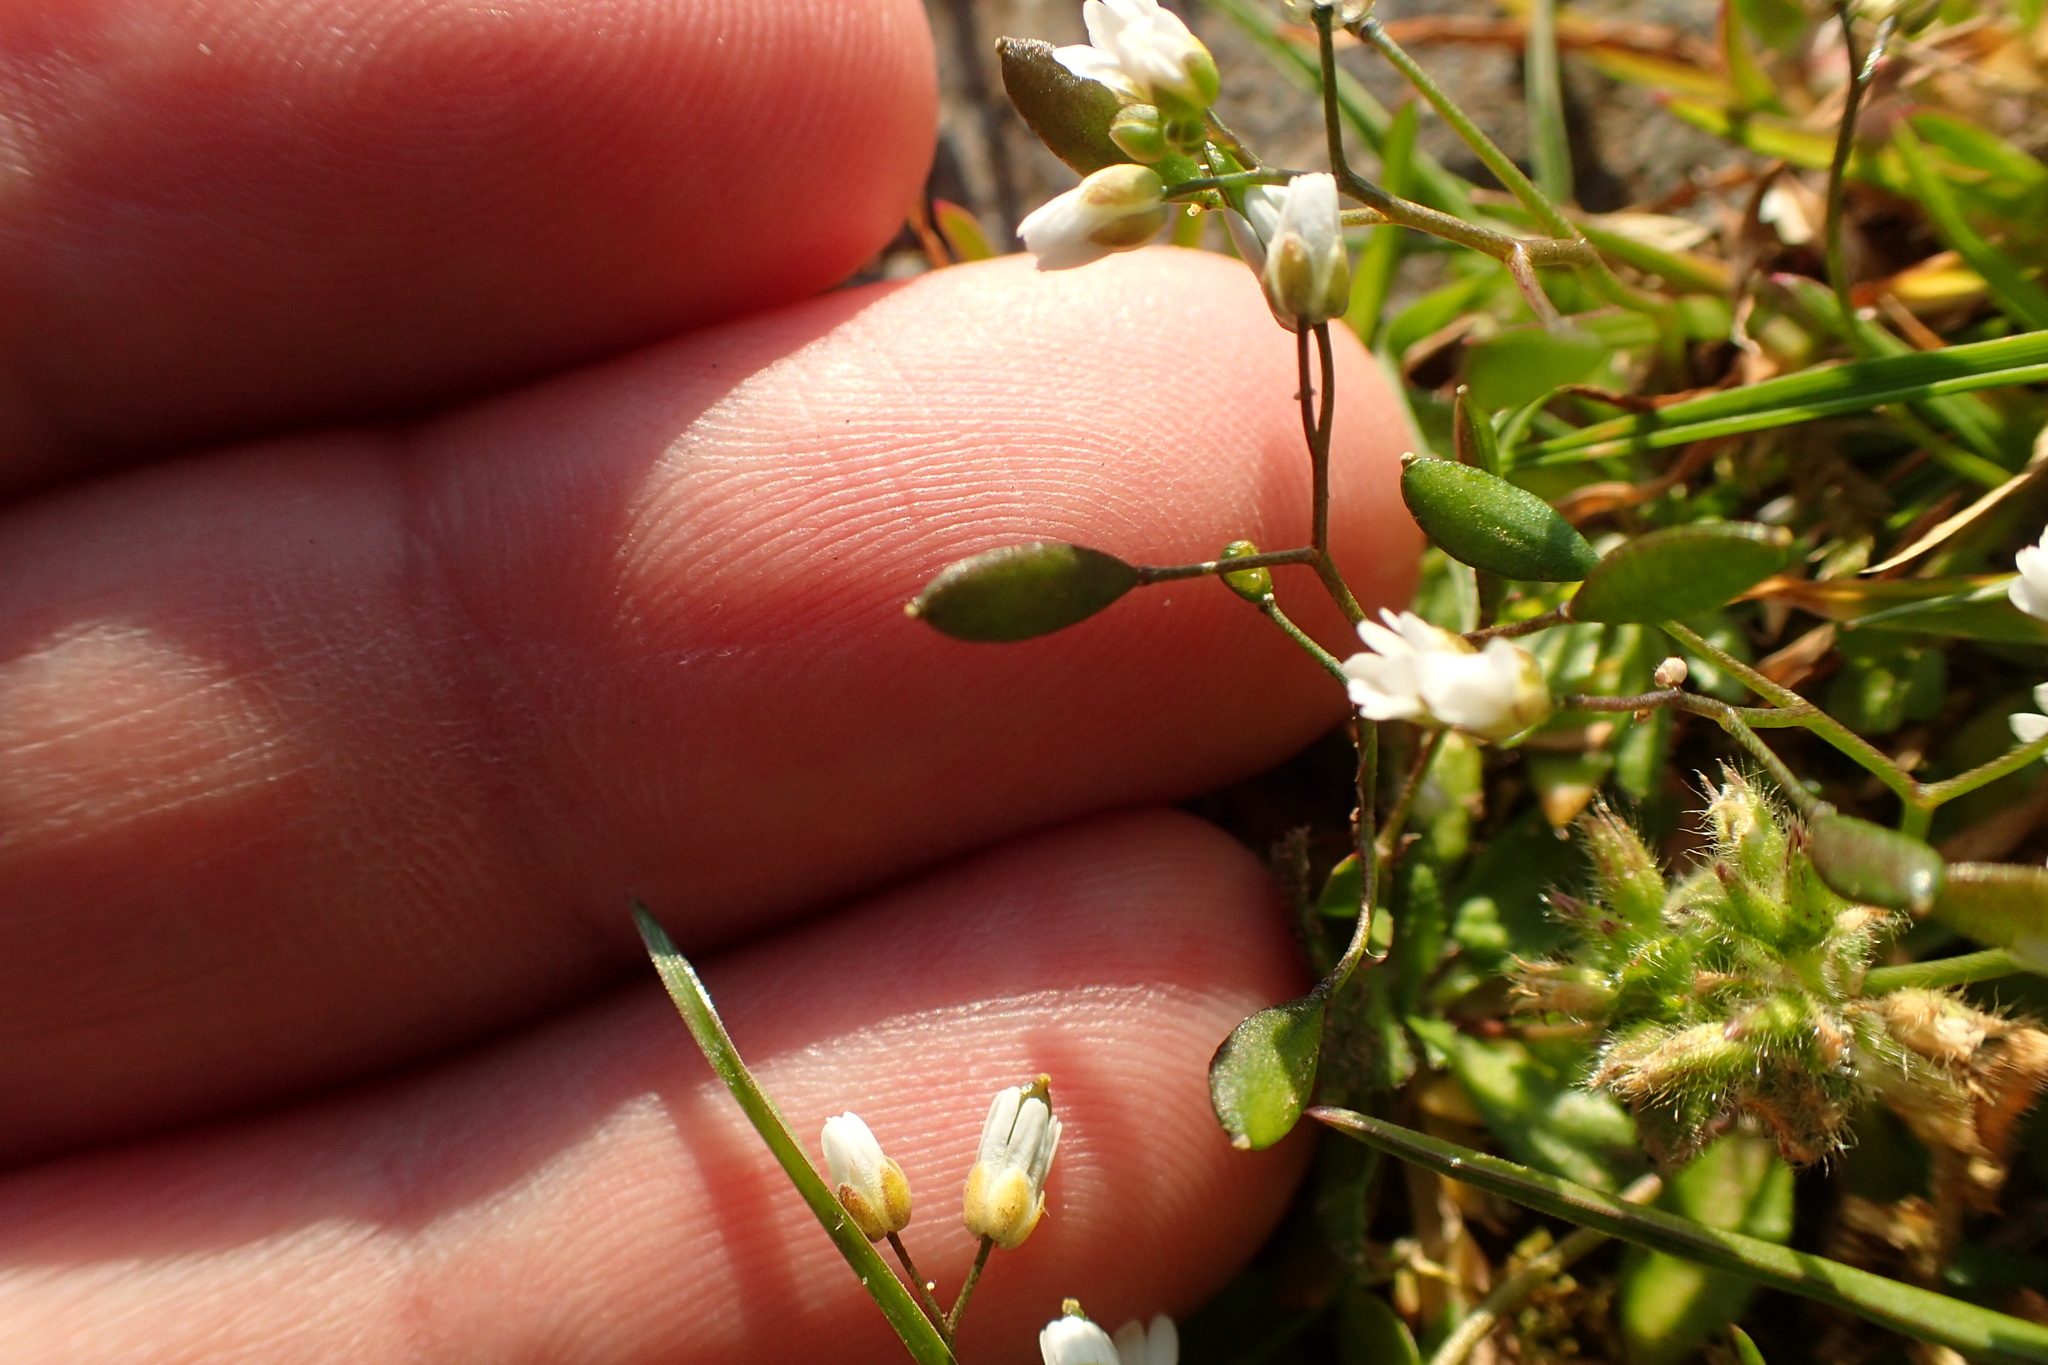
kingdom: Plantae
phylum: Tracheophyta
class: Magnoliopsida
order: Brassicales
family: Brassicaceae
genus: Draba
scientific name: Draba verna
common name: Spring draba
